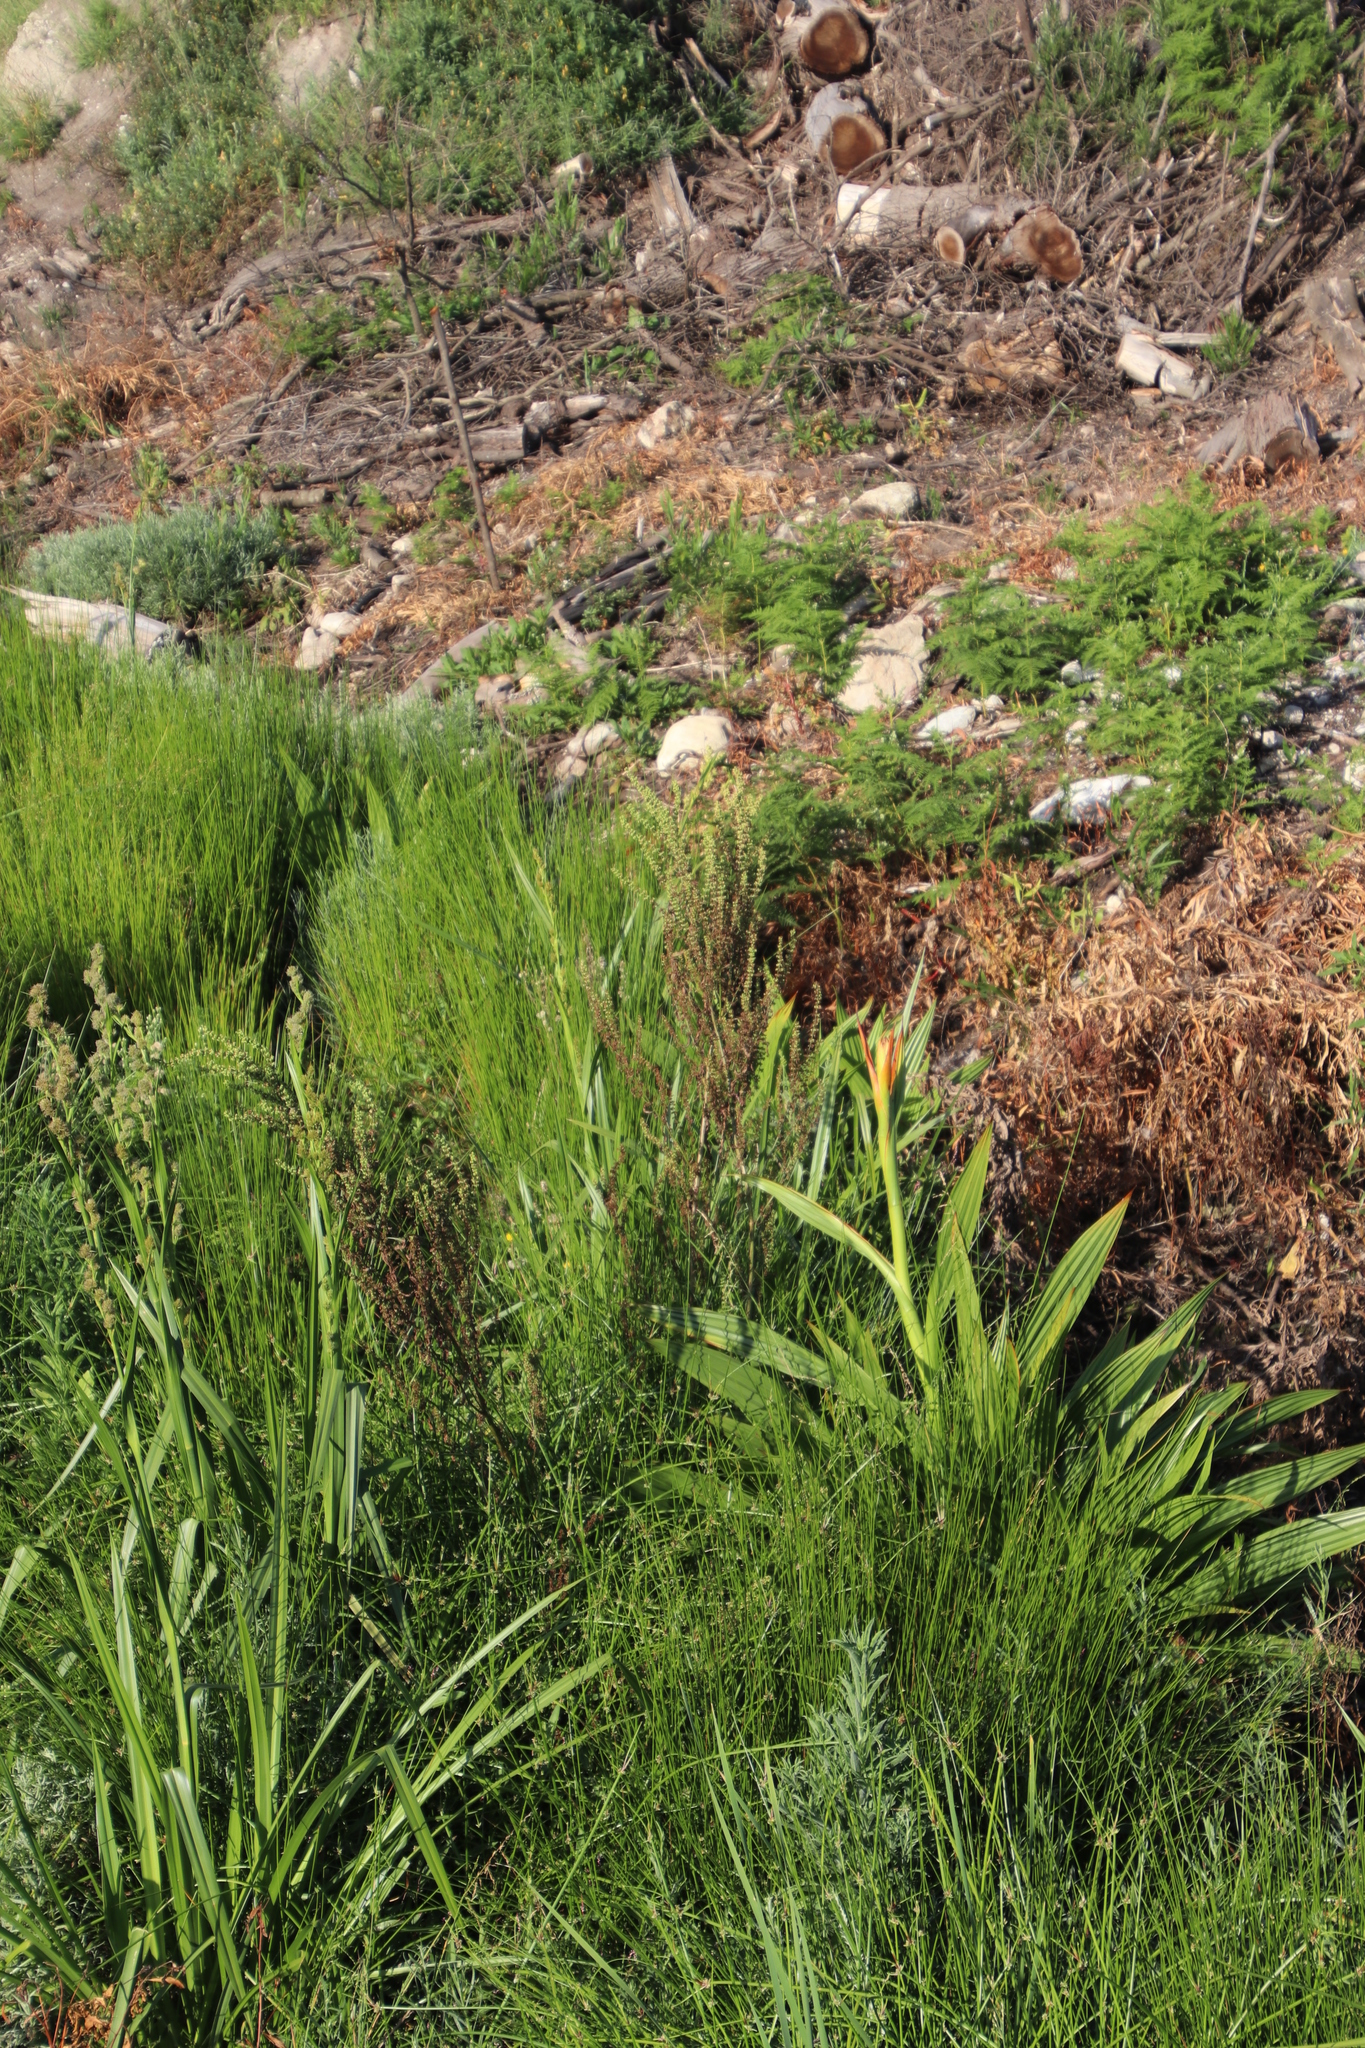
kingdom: Plantae
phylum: Tracheophyta
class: Liliopsida
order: Commelinales
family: Haemodoraceae
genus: Wachendorfia
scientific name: Wachendorfia thyrsiflora
